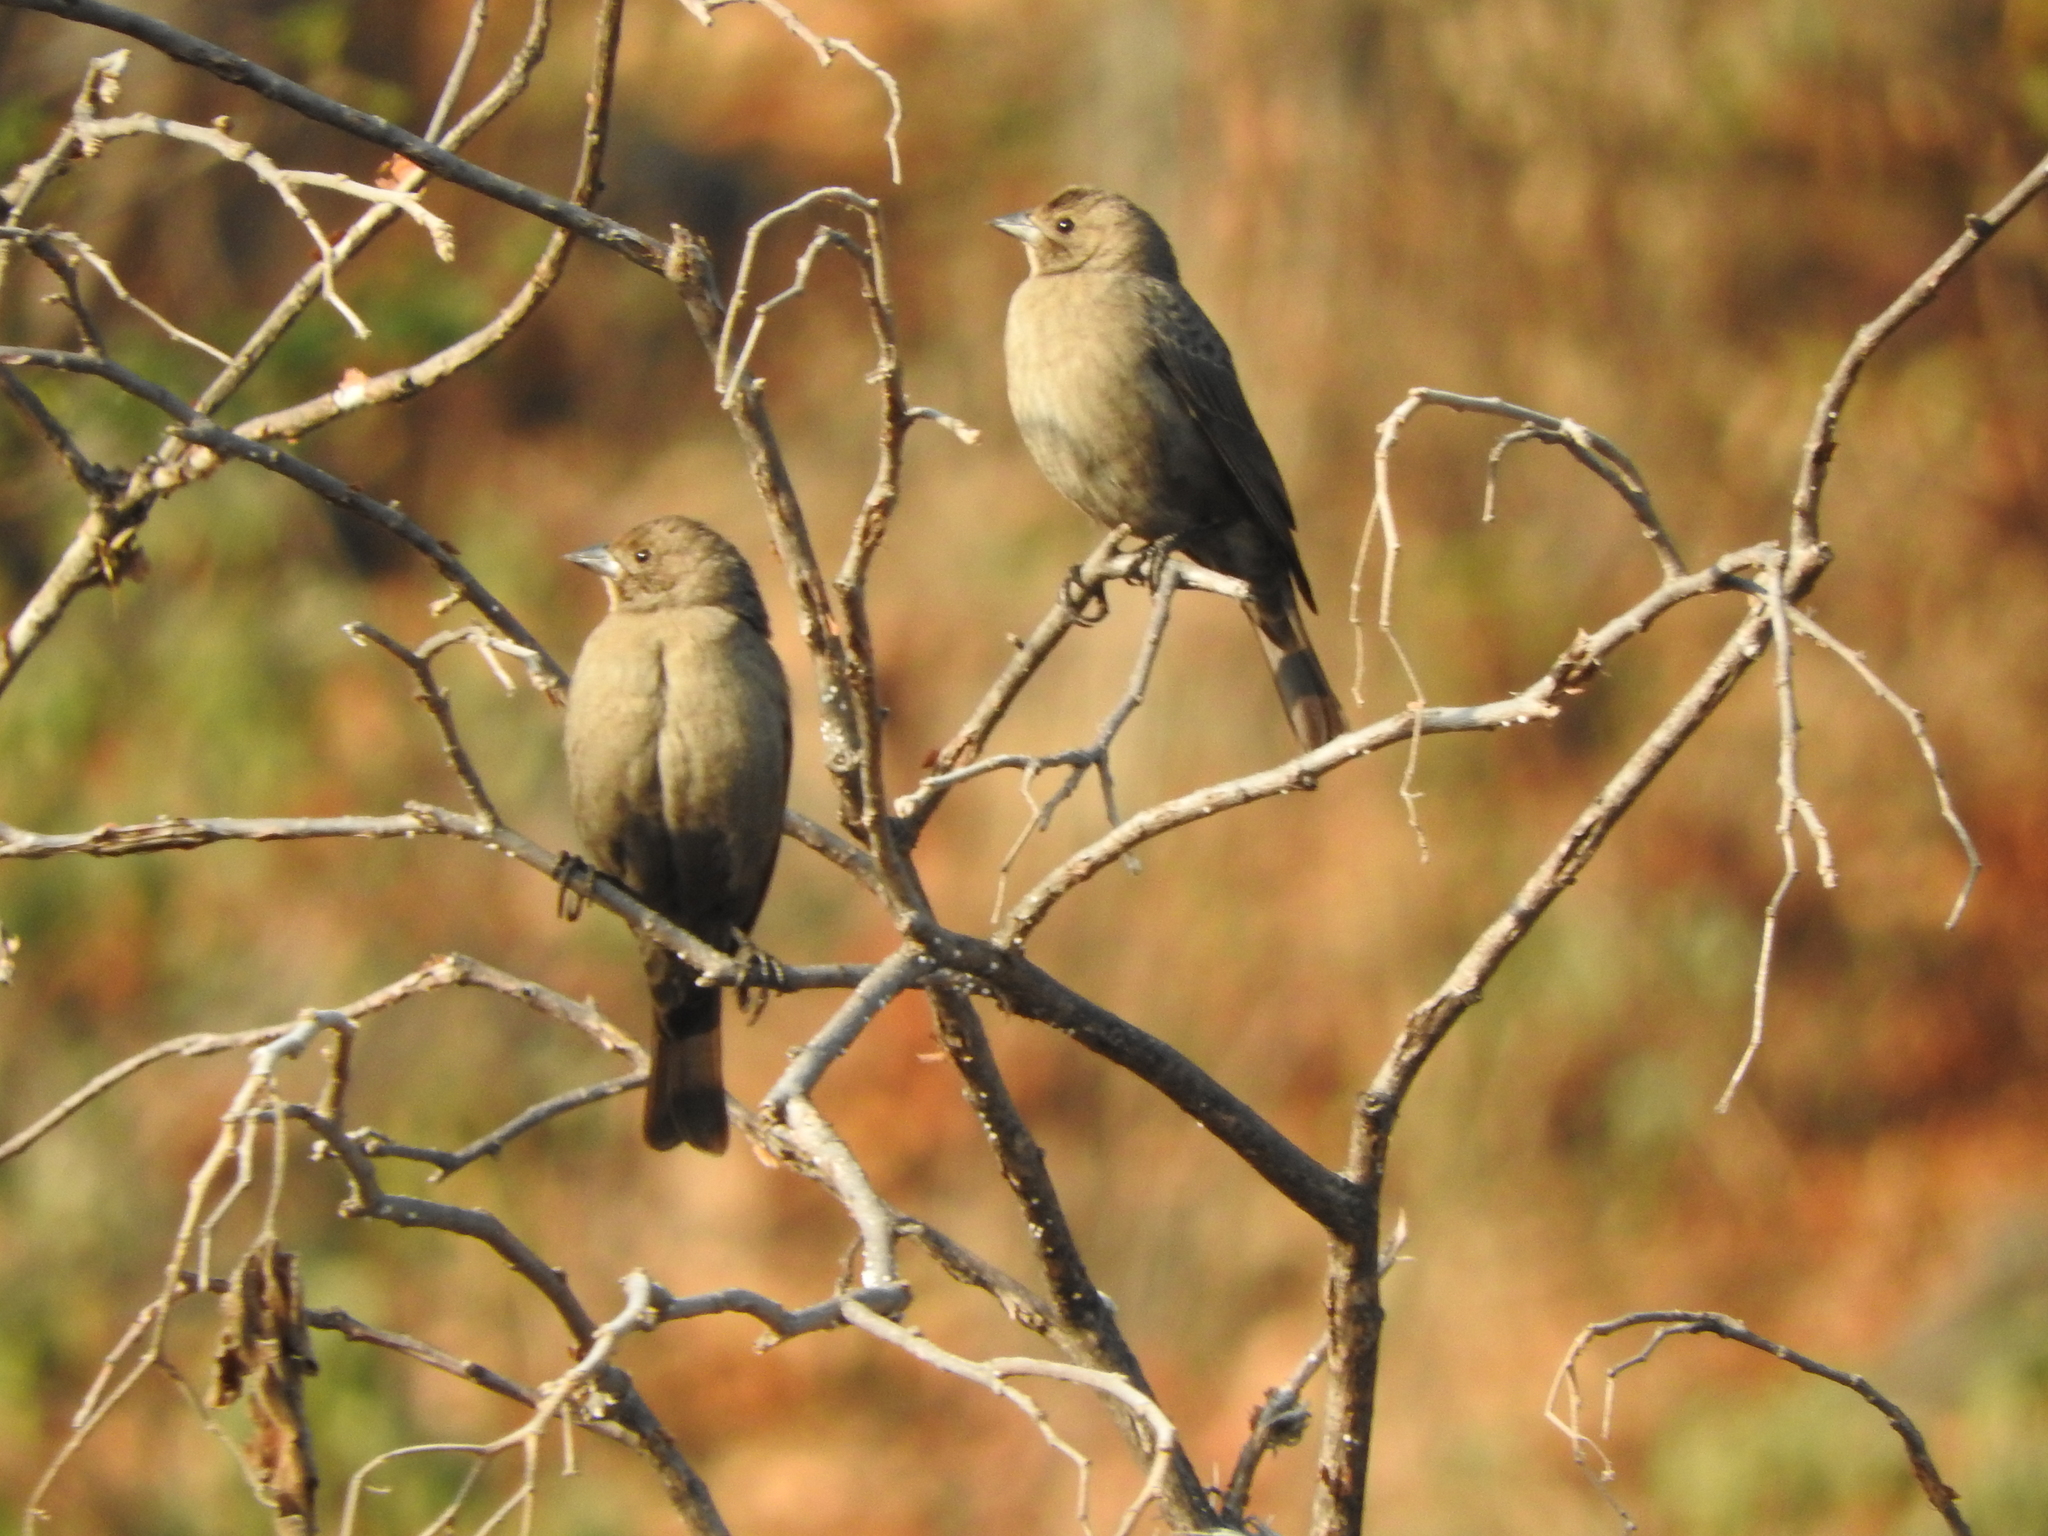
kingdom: Animalia
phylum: Chordata
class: Aves
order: Passeriformes
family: Icteridae
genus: Molothrus
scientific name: Molothrus ater
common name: Brown-headed cowbird
